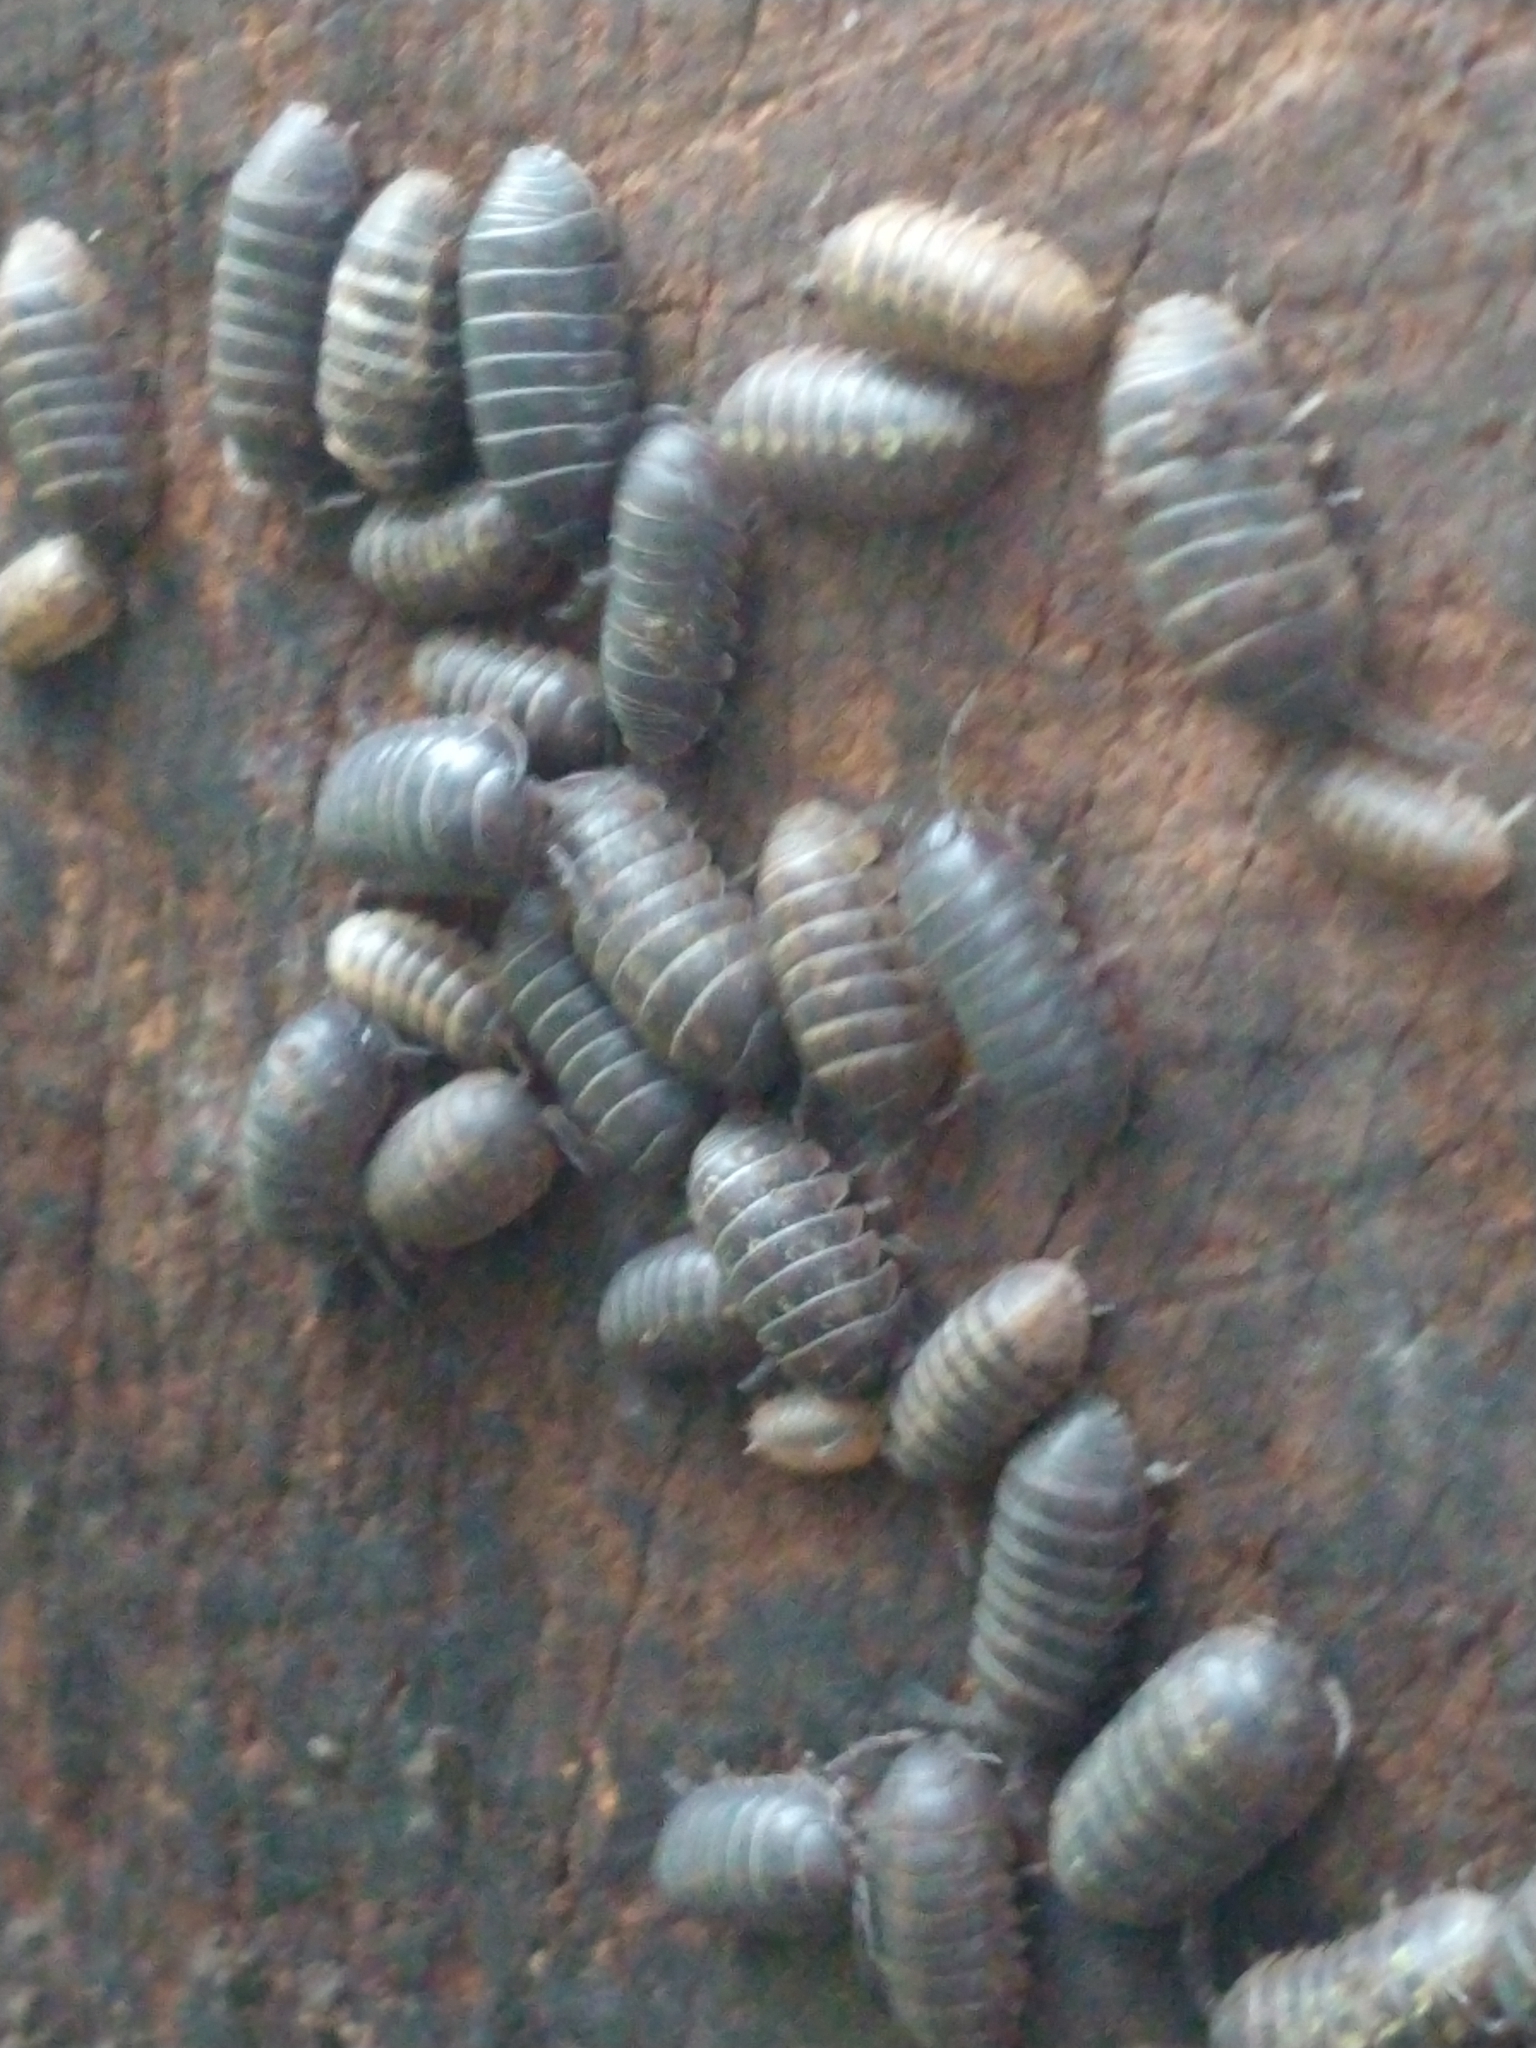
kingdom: Animalia
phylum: Arthropoda
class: Malacostraca
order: Isopoda
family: Armadillidiidae
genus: Armadillidium
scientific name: Armadillidium vulgare
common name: Common pill woodlouse
